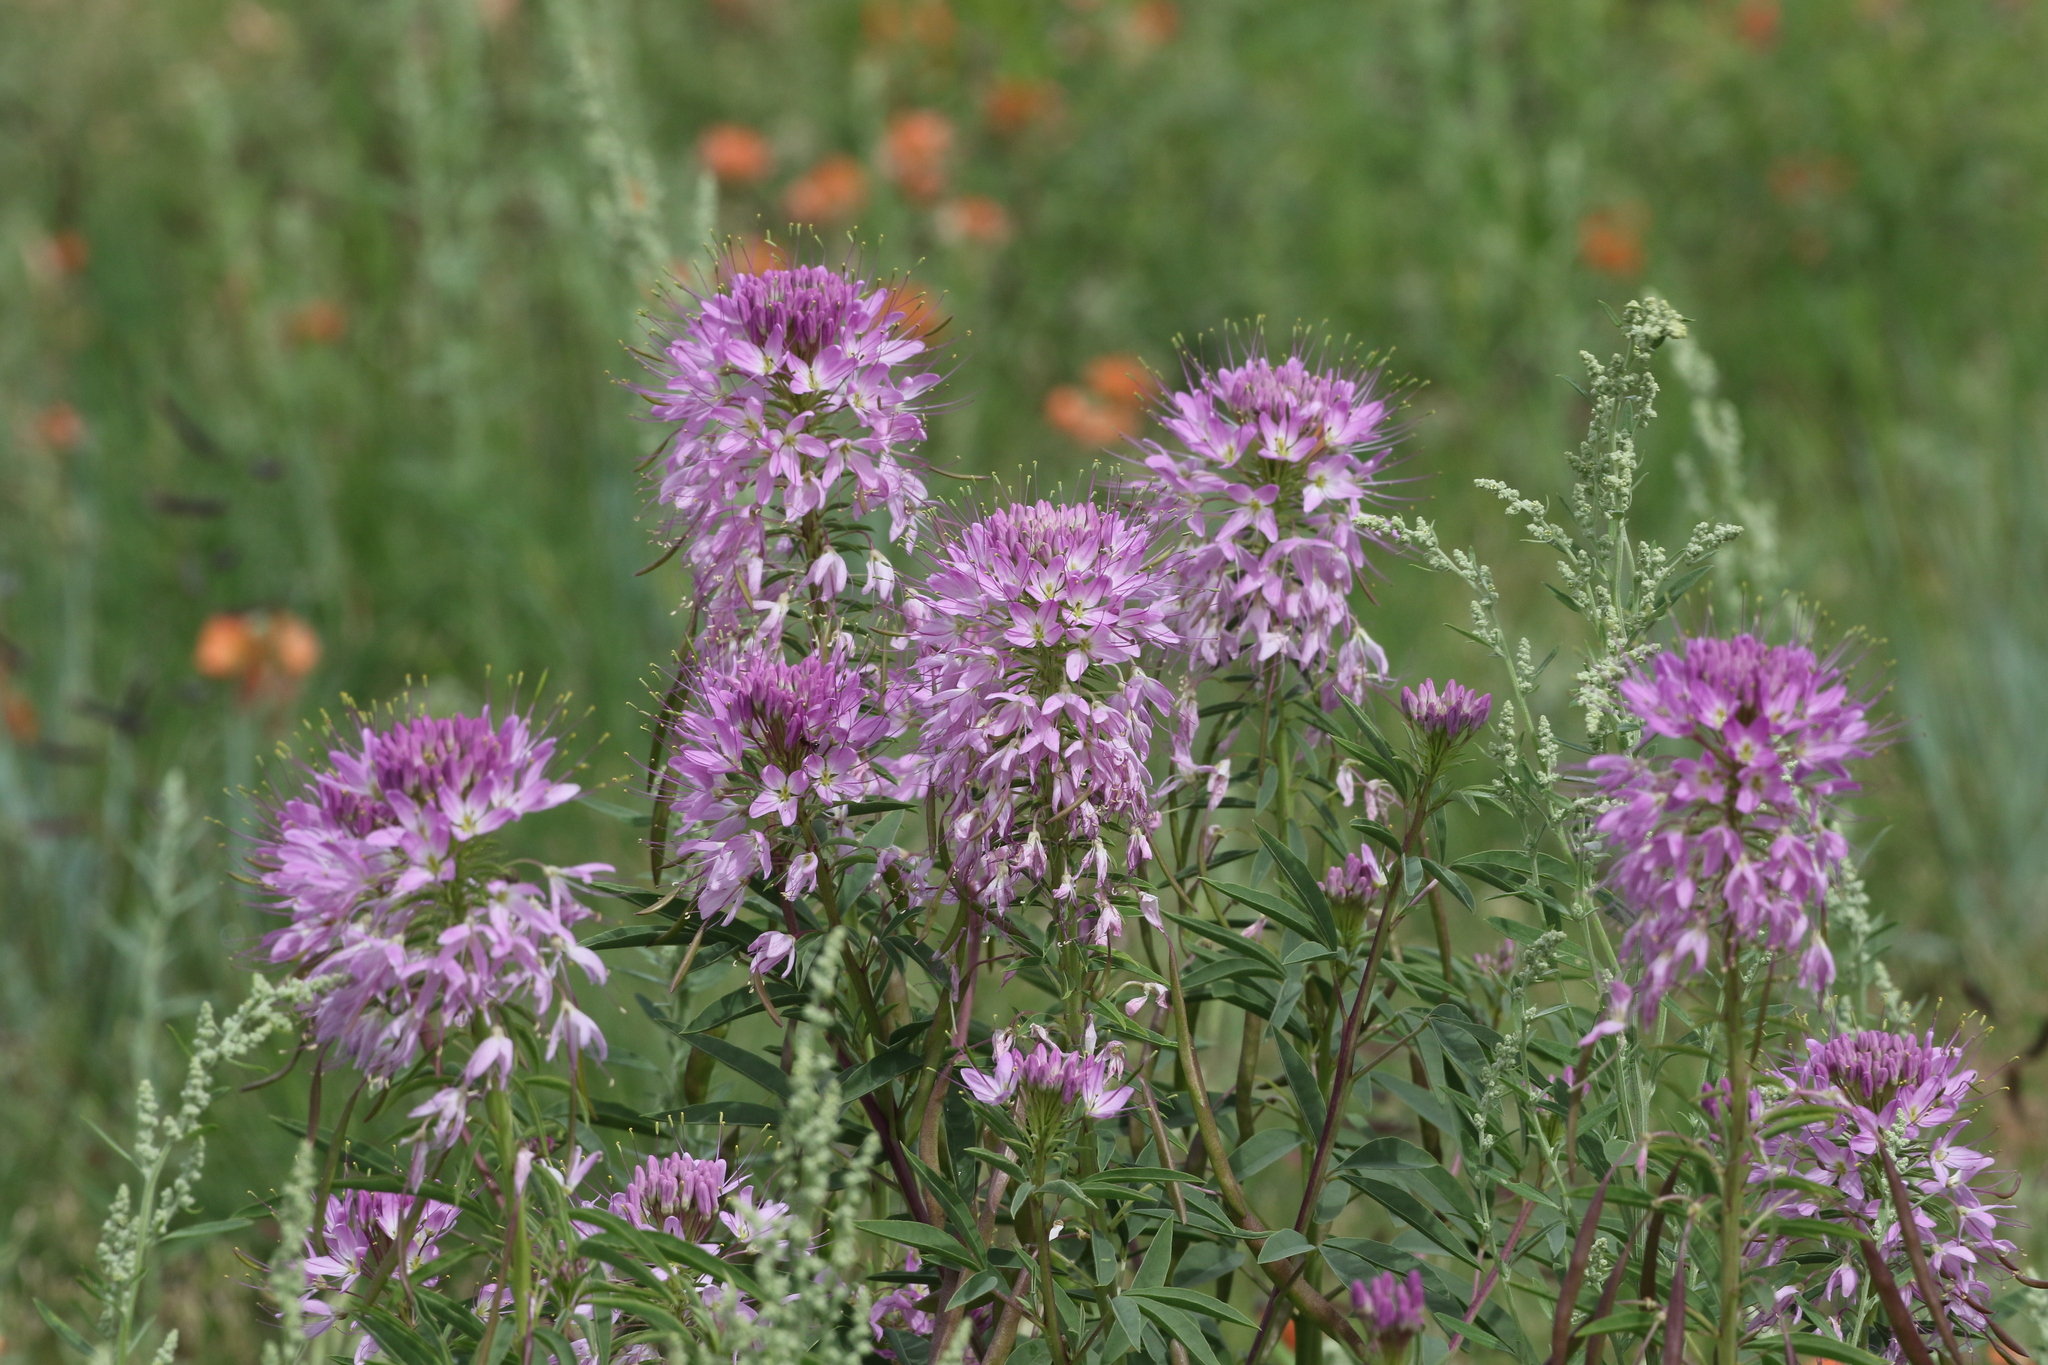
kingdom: Plantae
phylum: Tracheophyta
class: Magnoliopsida
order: Brassicales
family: Cleomaceae
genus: Cleomella
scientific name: Cleomella serrulata
